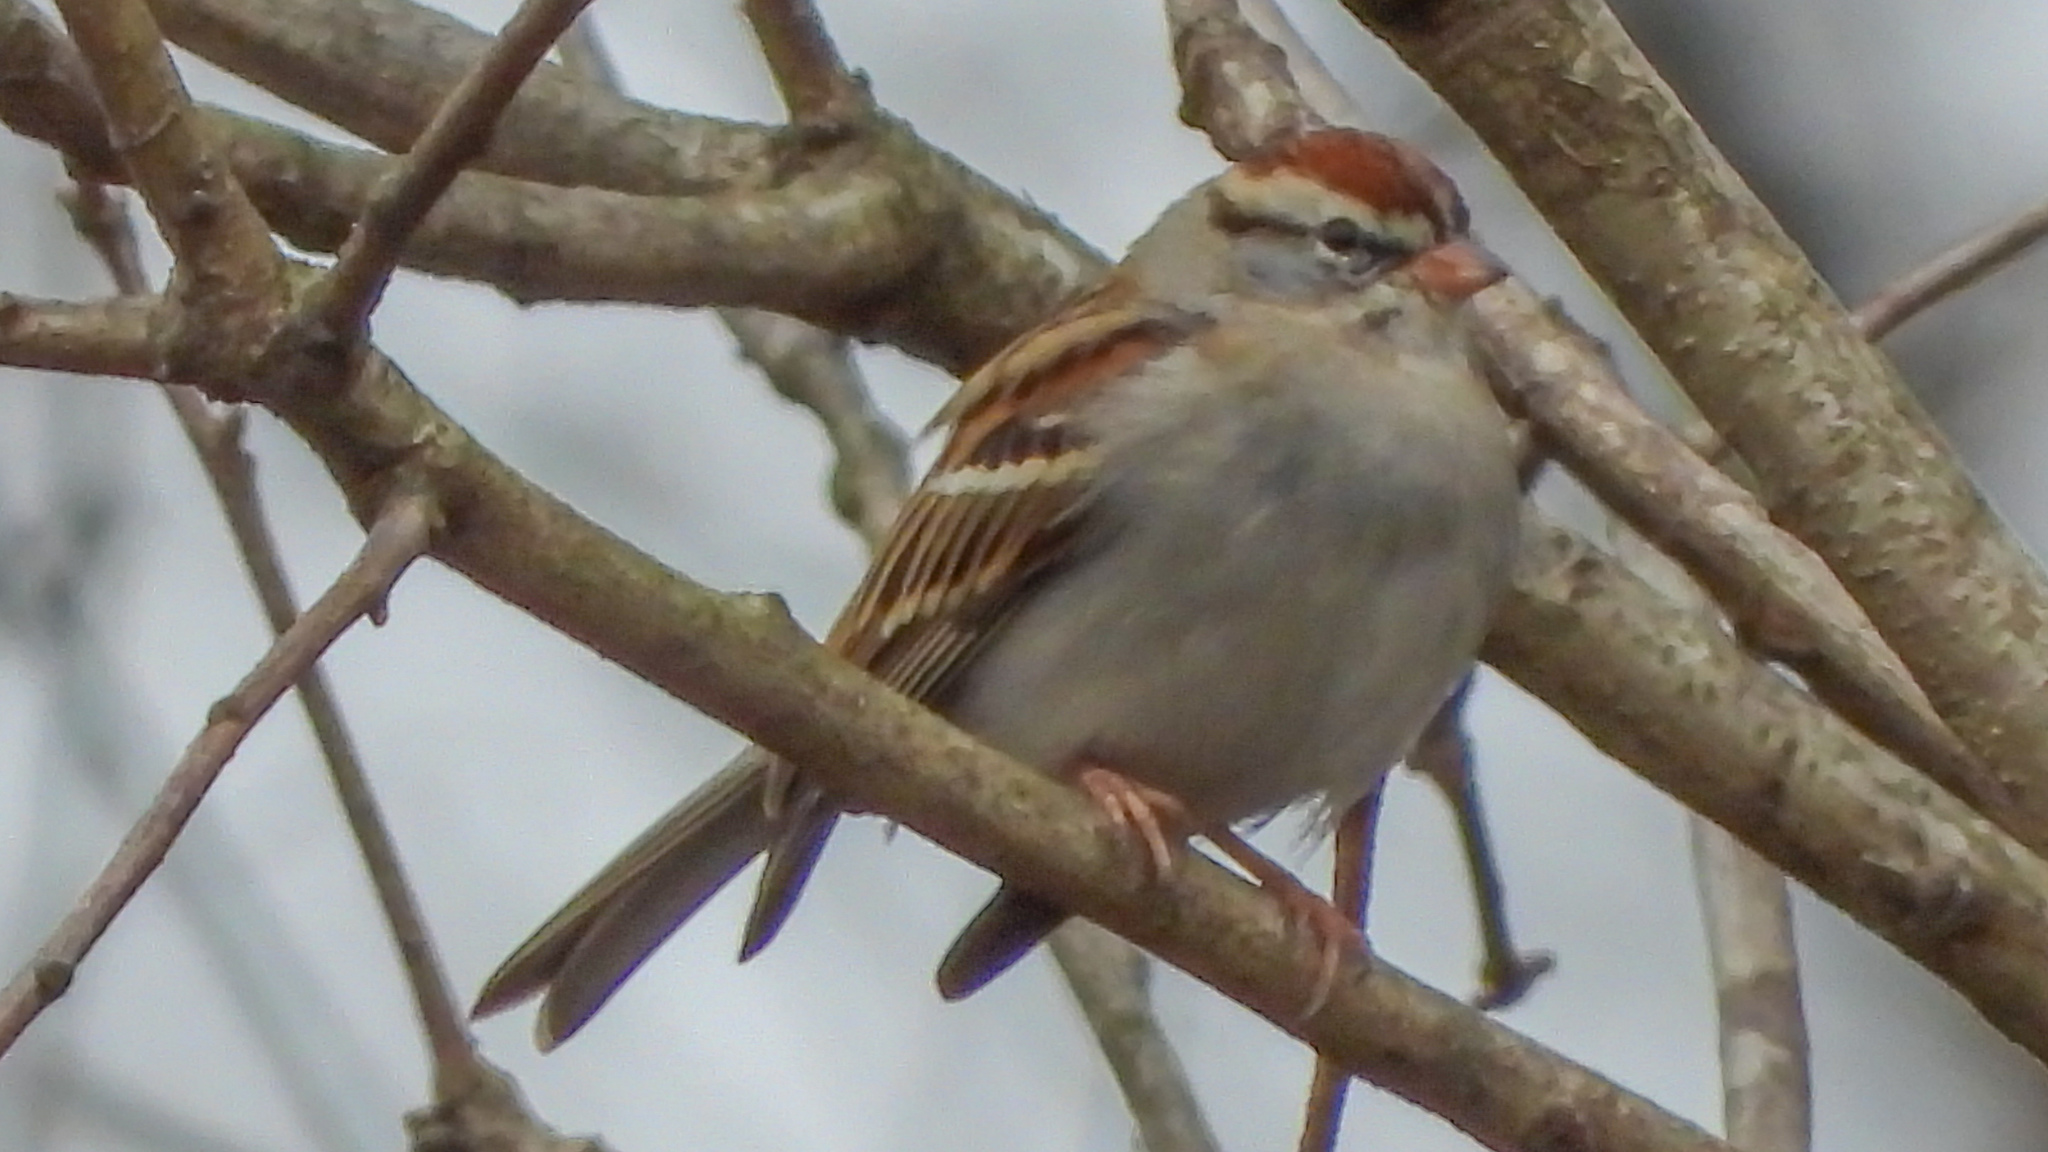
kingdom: Animalia
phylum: Chordata
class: Aves
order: Passeriformes
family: Passerellidae
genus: Spizella
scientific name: Spizella passerina
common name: Chipping sparrow
